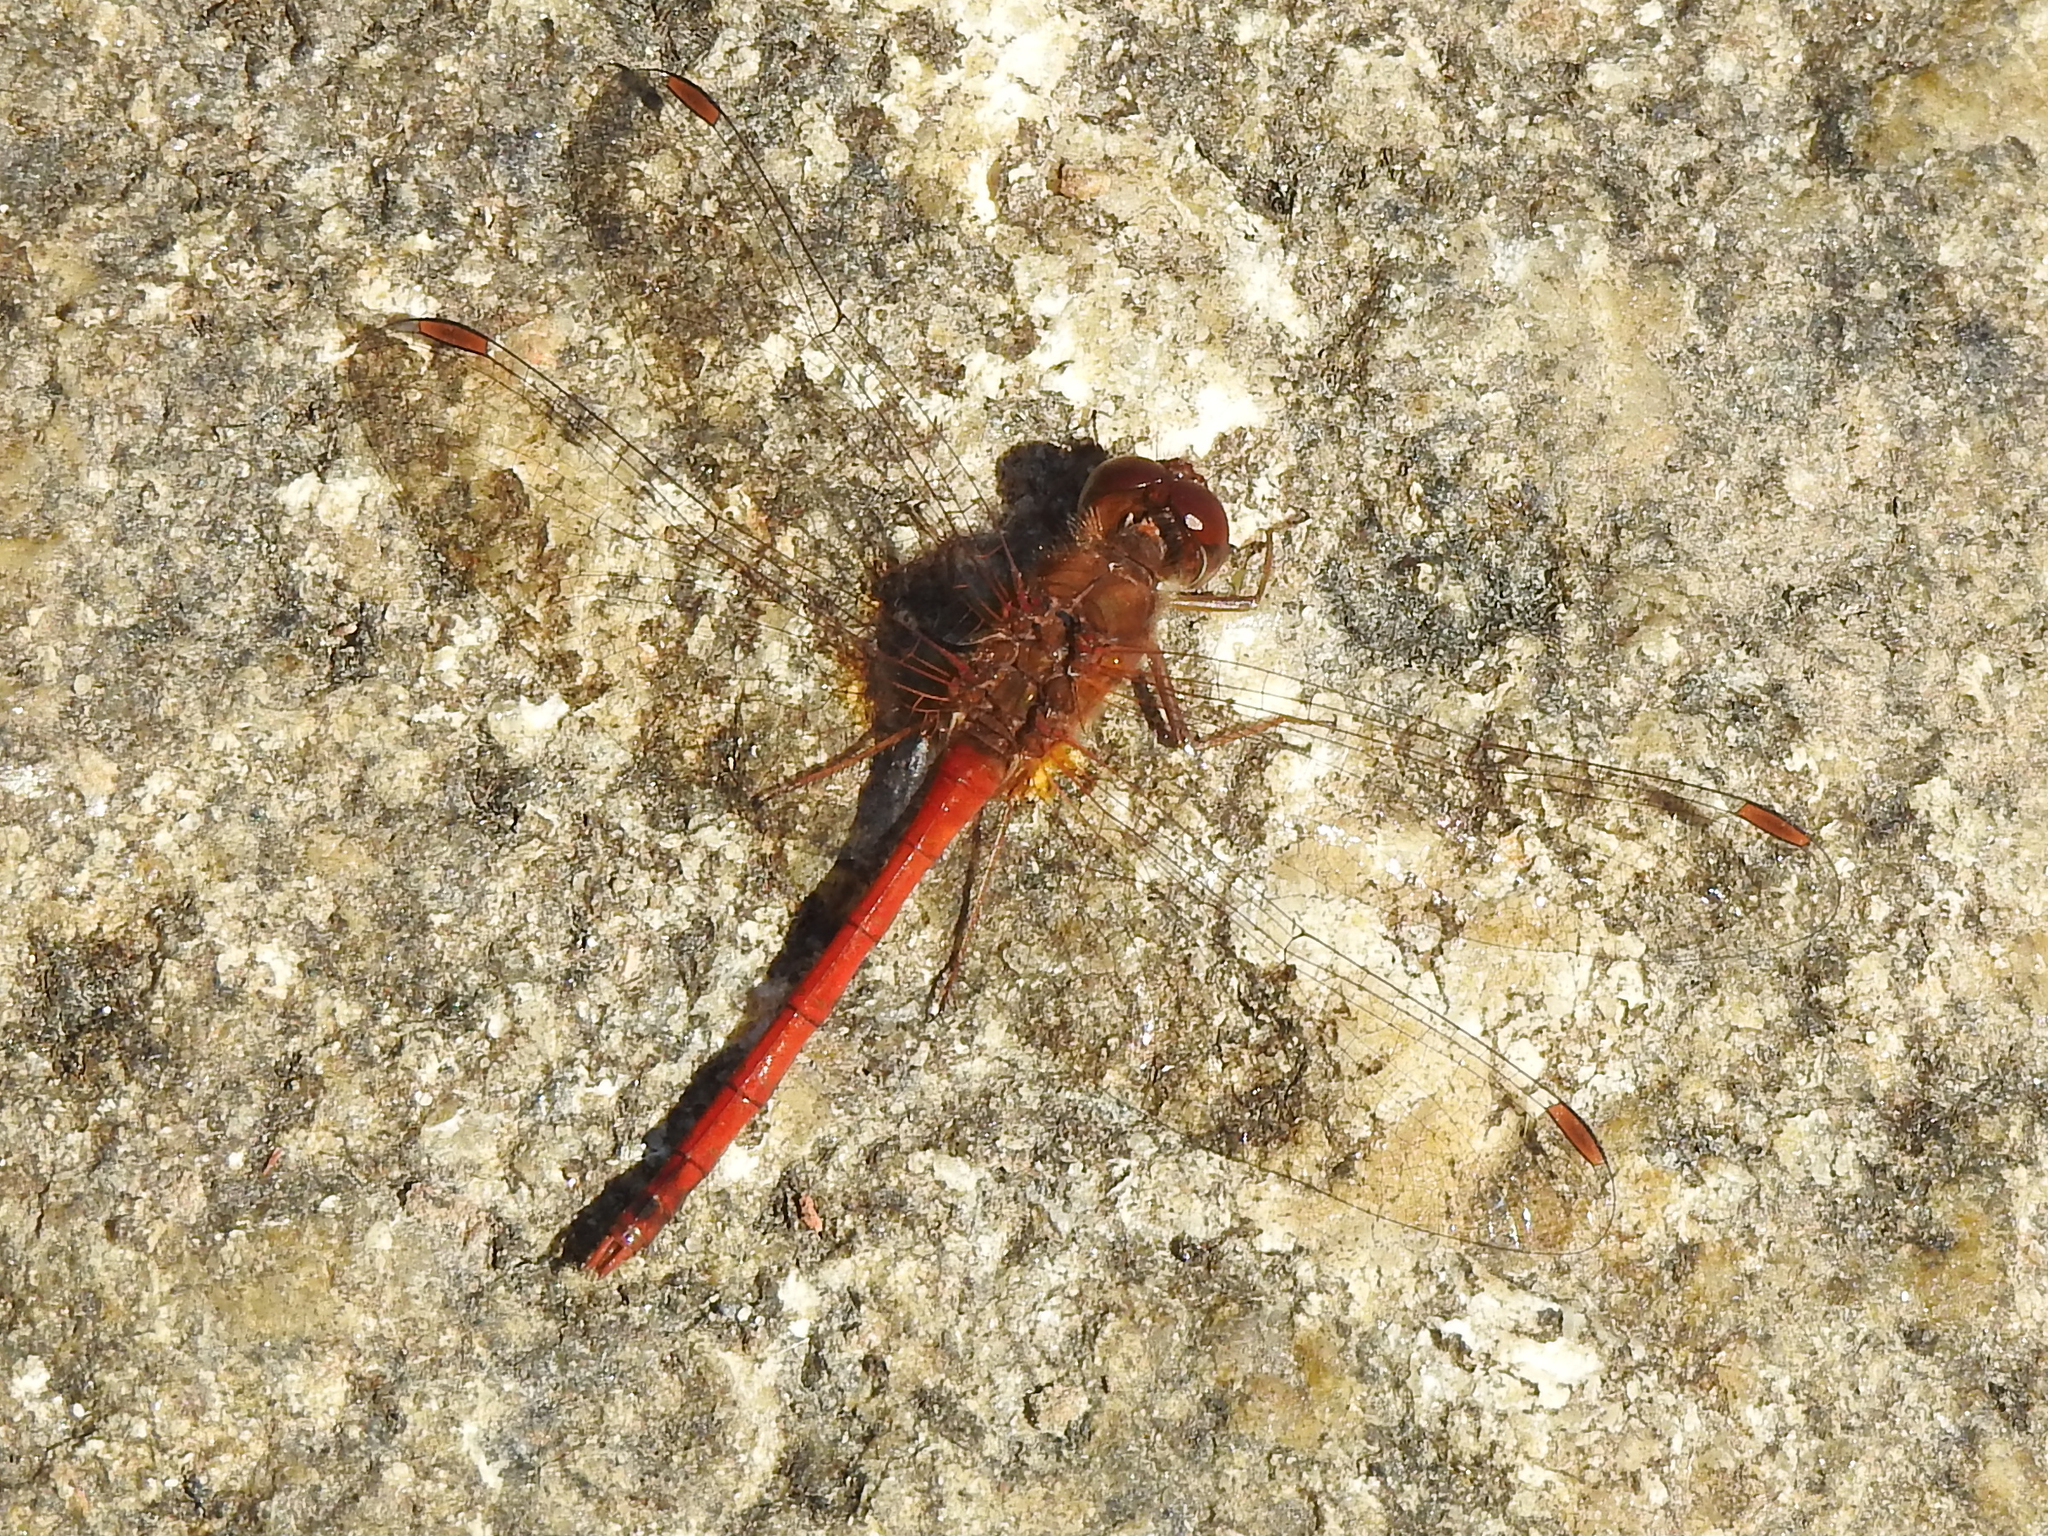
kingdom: Animalia
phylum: Arthropoda
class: Insecta
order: Odonata
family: Libellulidae
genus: Sympetrum
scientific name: Sympetrum vicinum
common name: Autumn meadowhawk
